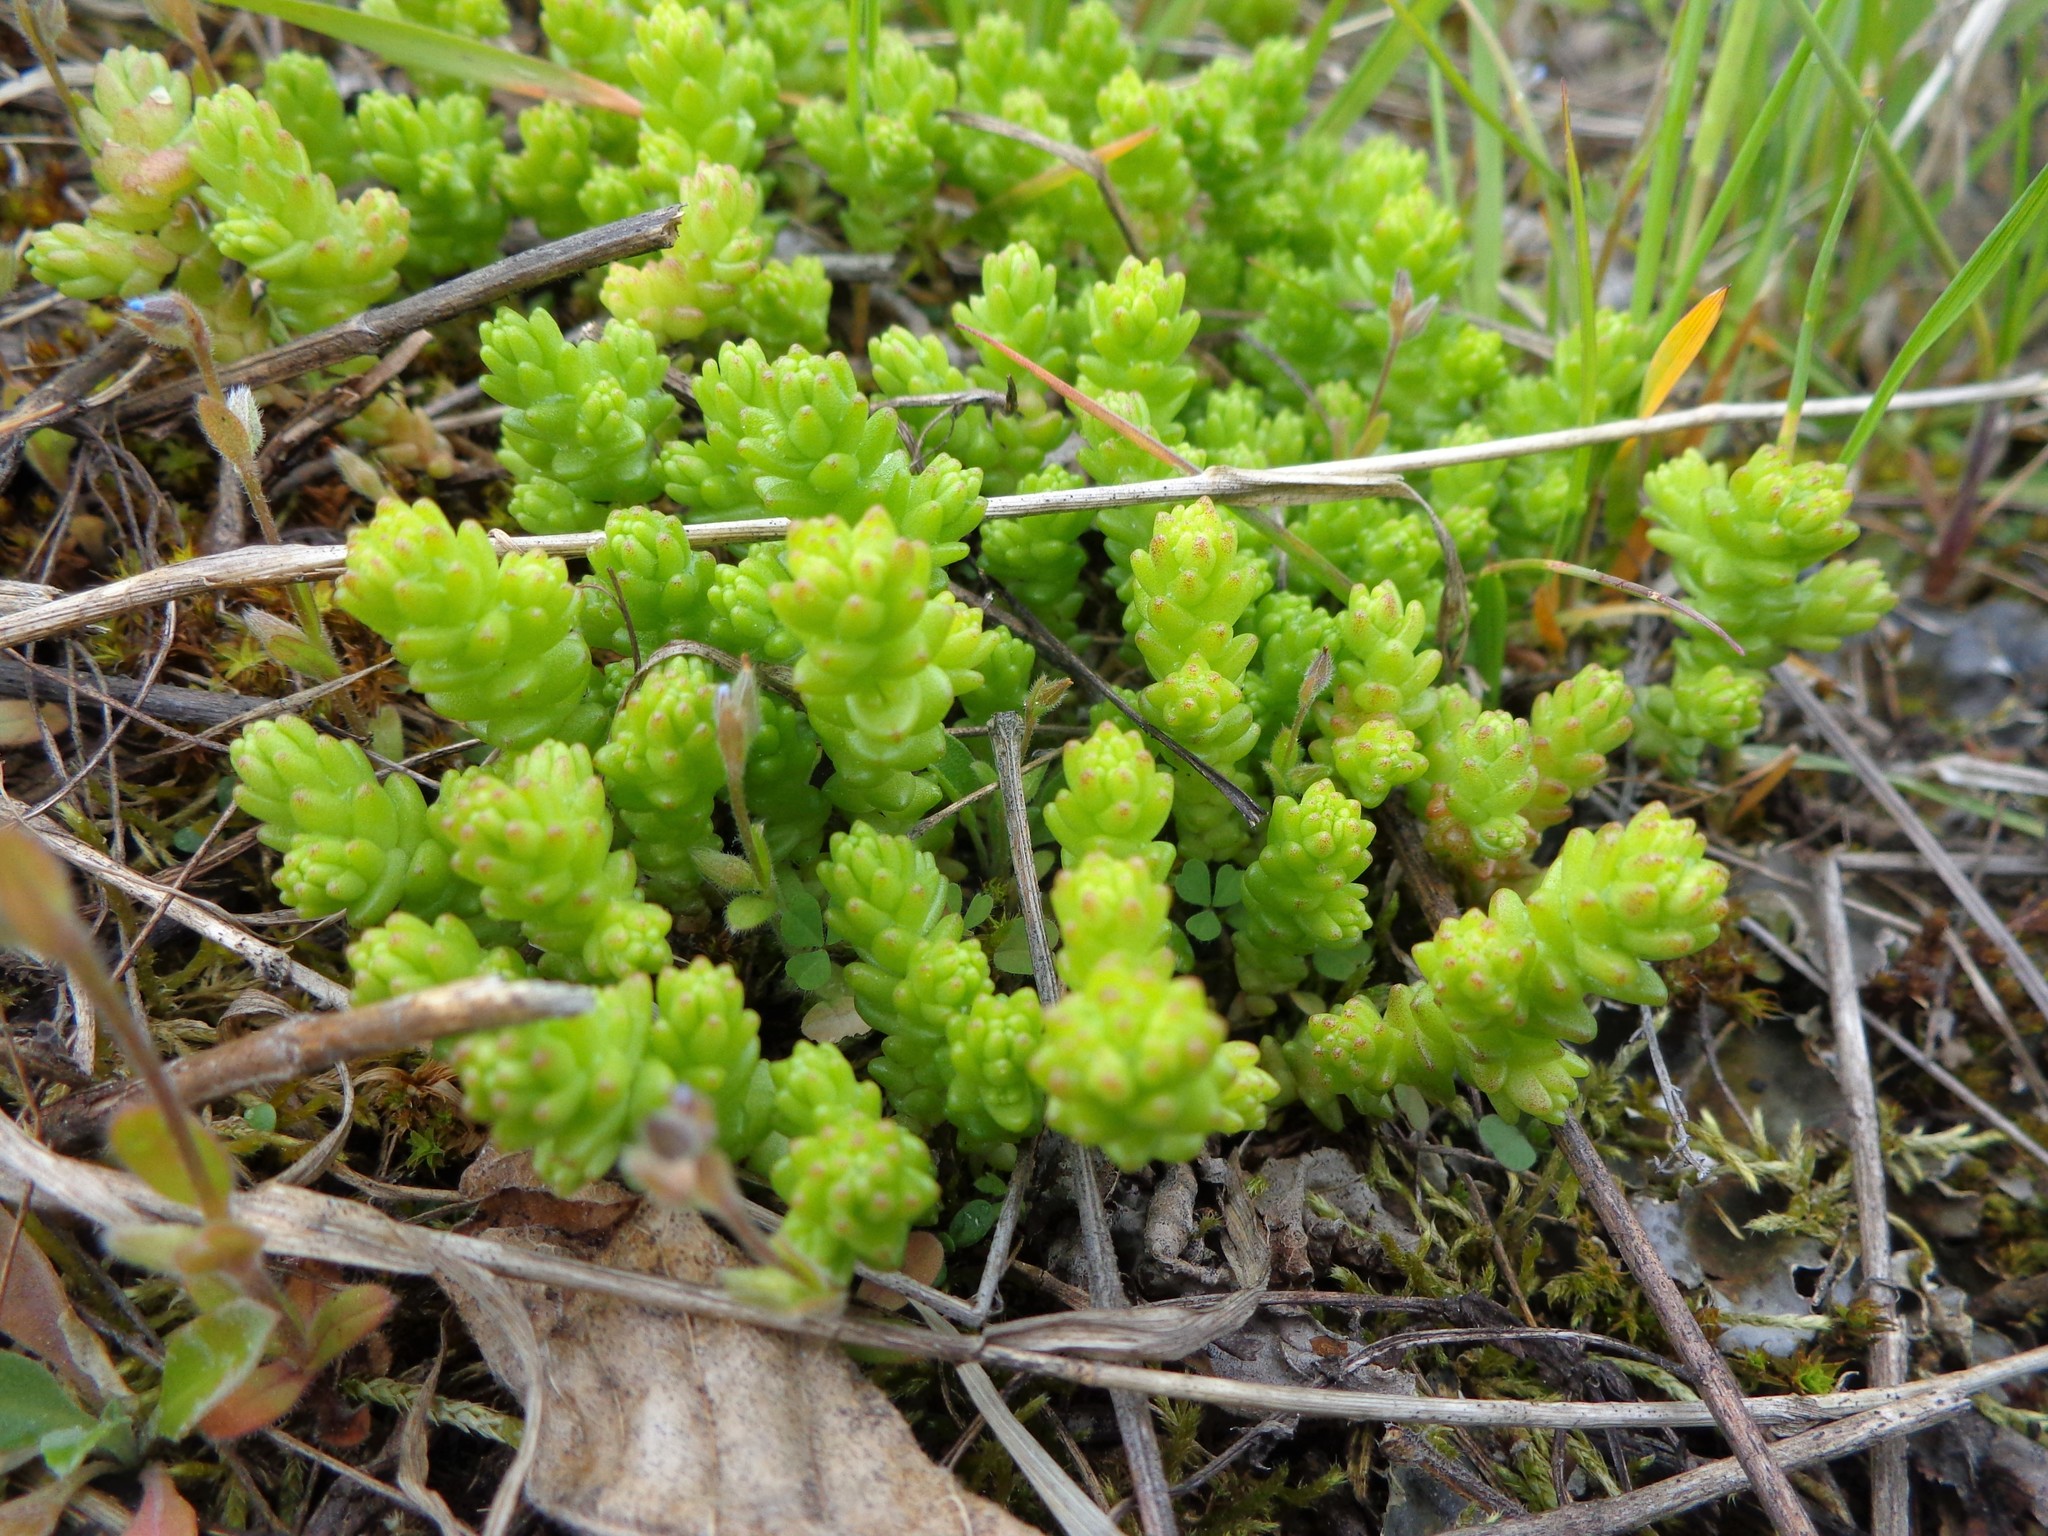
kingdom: Plantae
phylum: Tracheophyta
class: Magnoliopsida
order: Saxifragales
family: Crassulaceae
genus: Sedum
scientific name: Sedum acre
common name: Biting stonecrop
